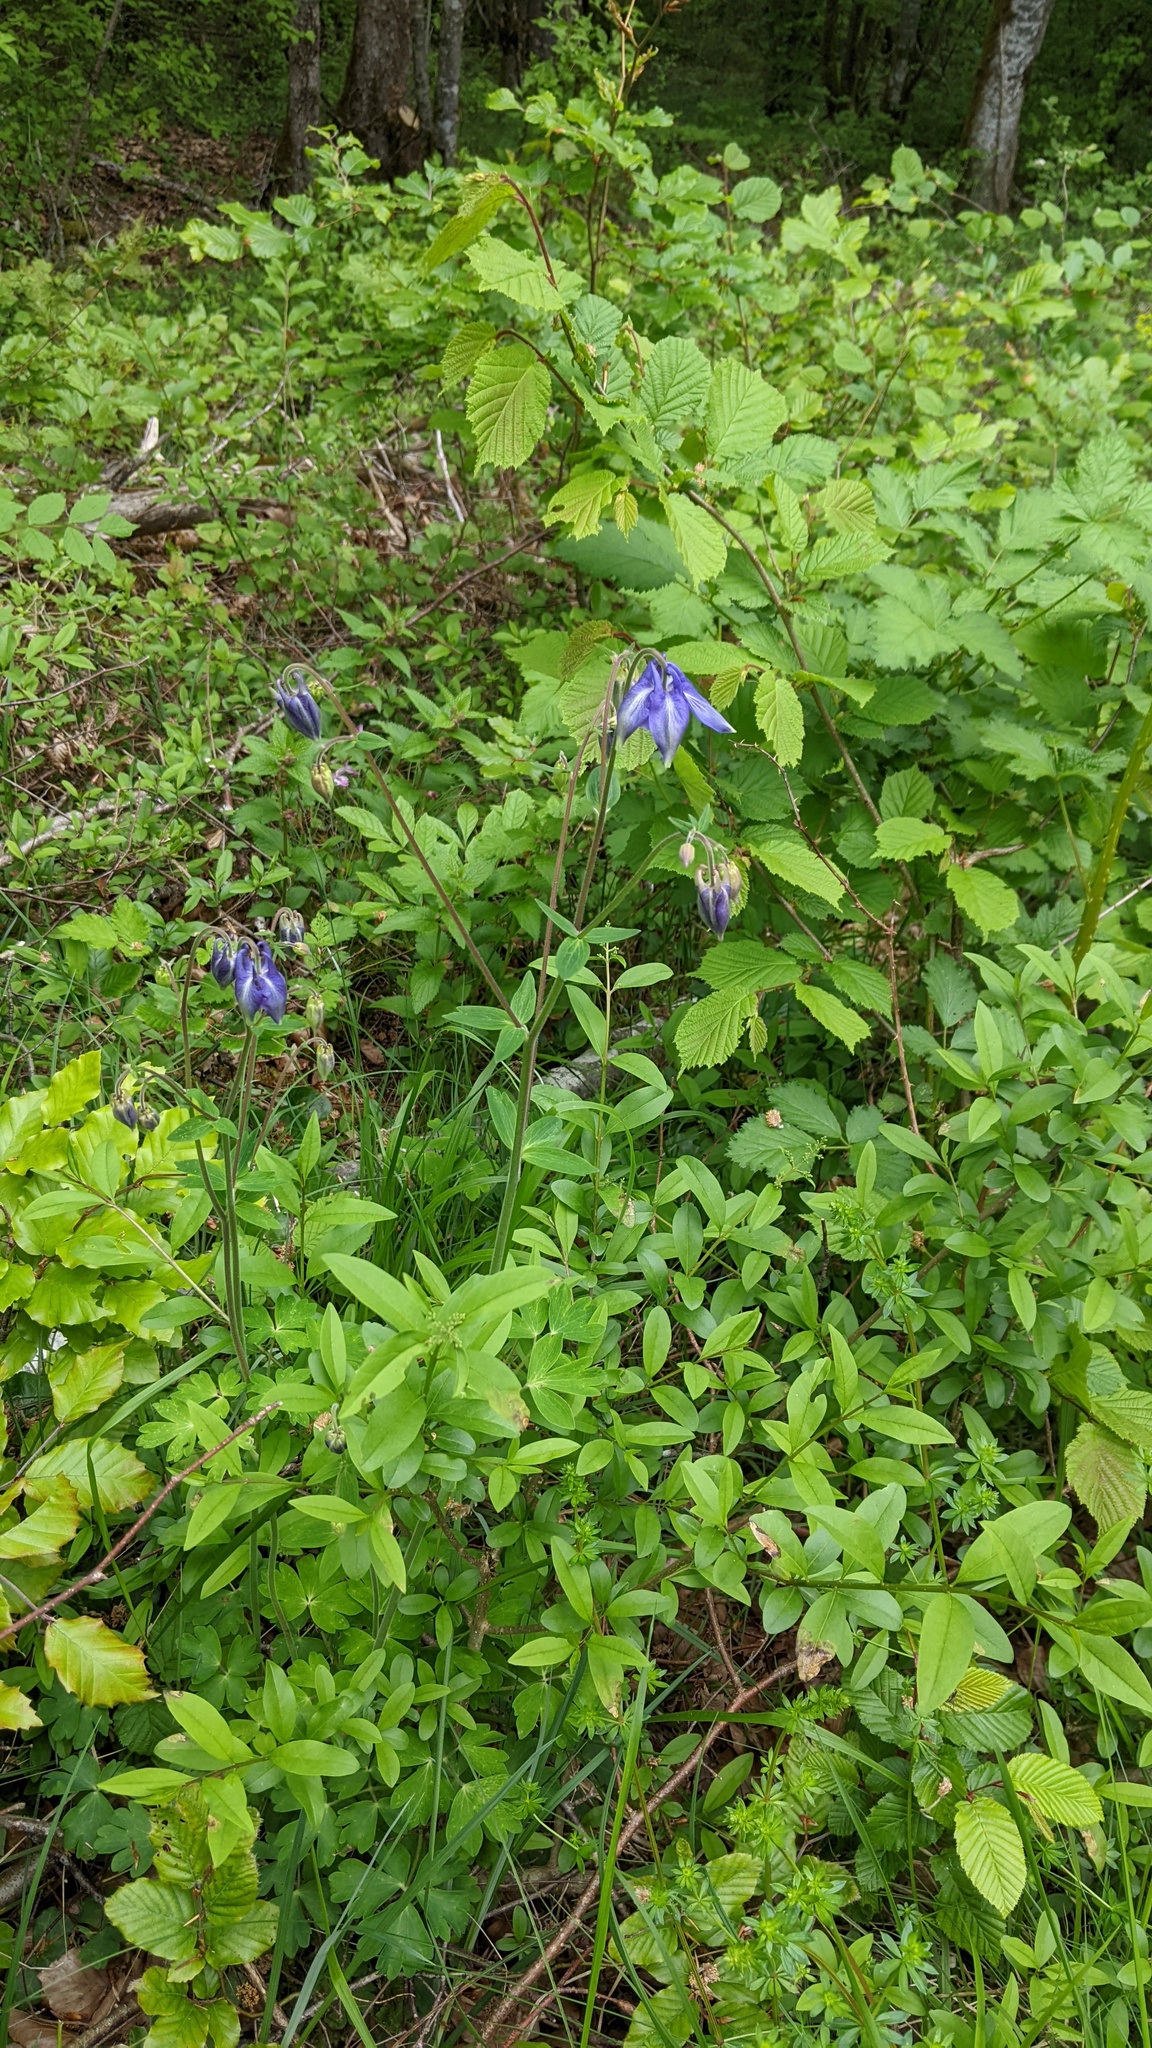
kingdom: Plantae
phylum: Tracheophyta
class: Magnoliopsida
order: Ranunculales
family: Ranunculaceae
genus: Aquilegia
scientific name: Aquilegia vulgaris
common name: Columbine
